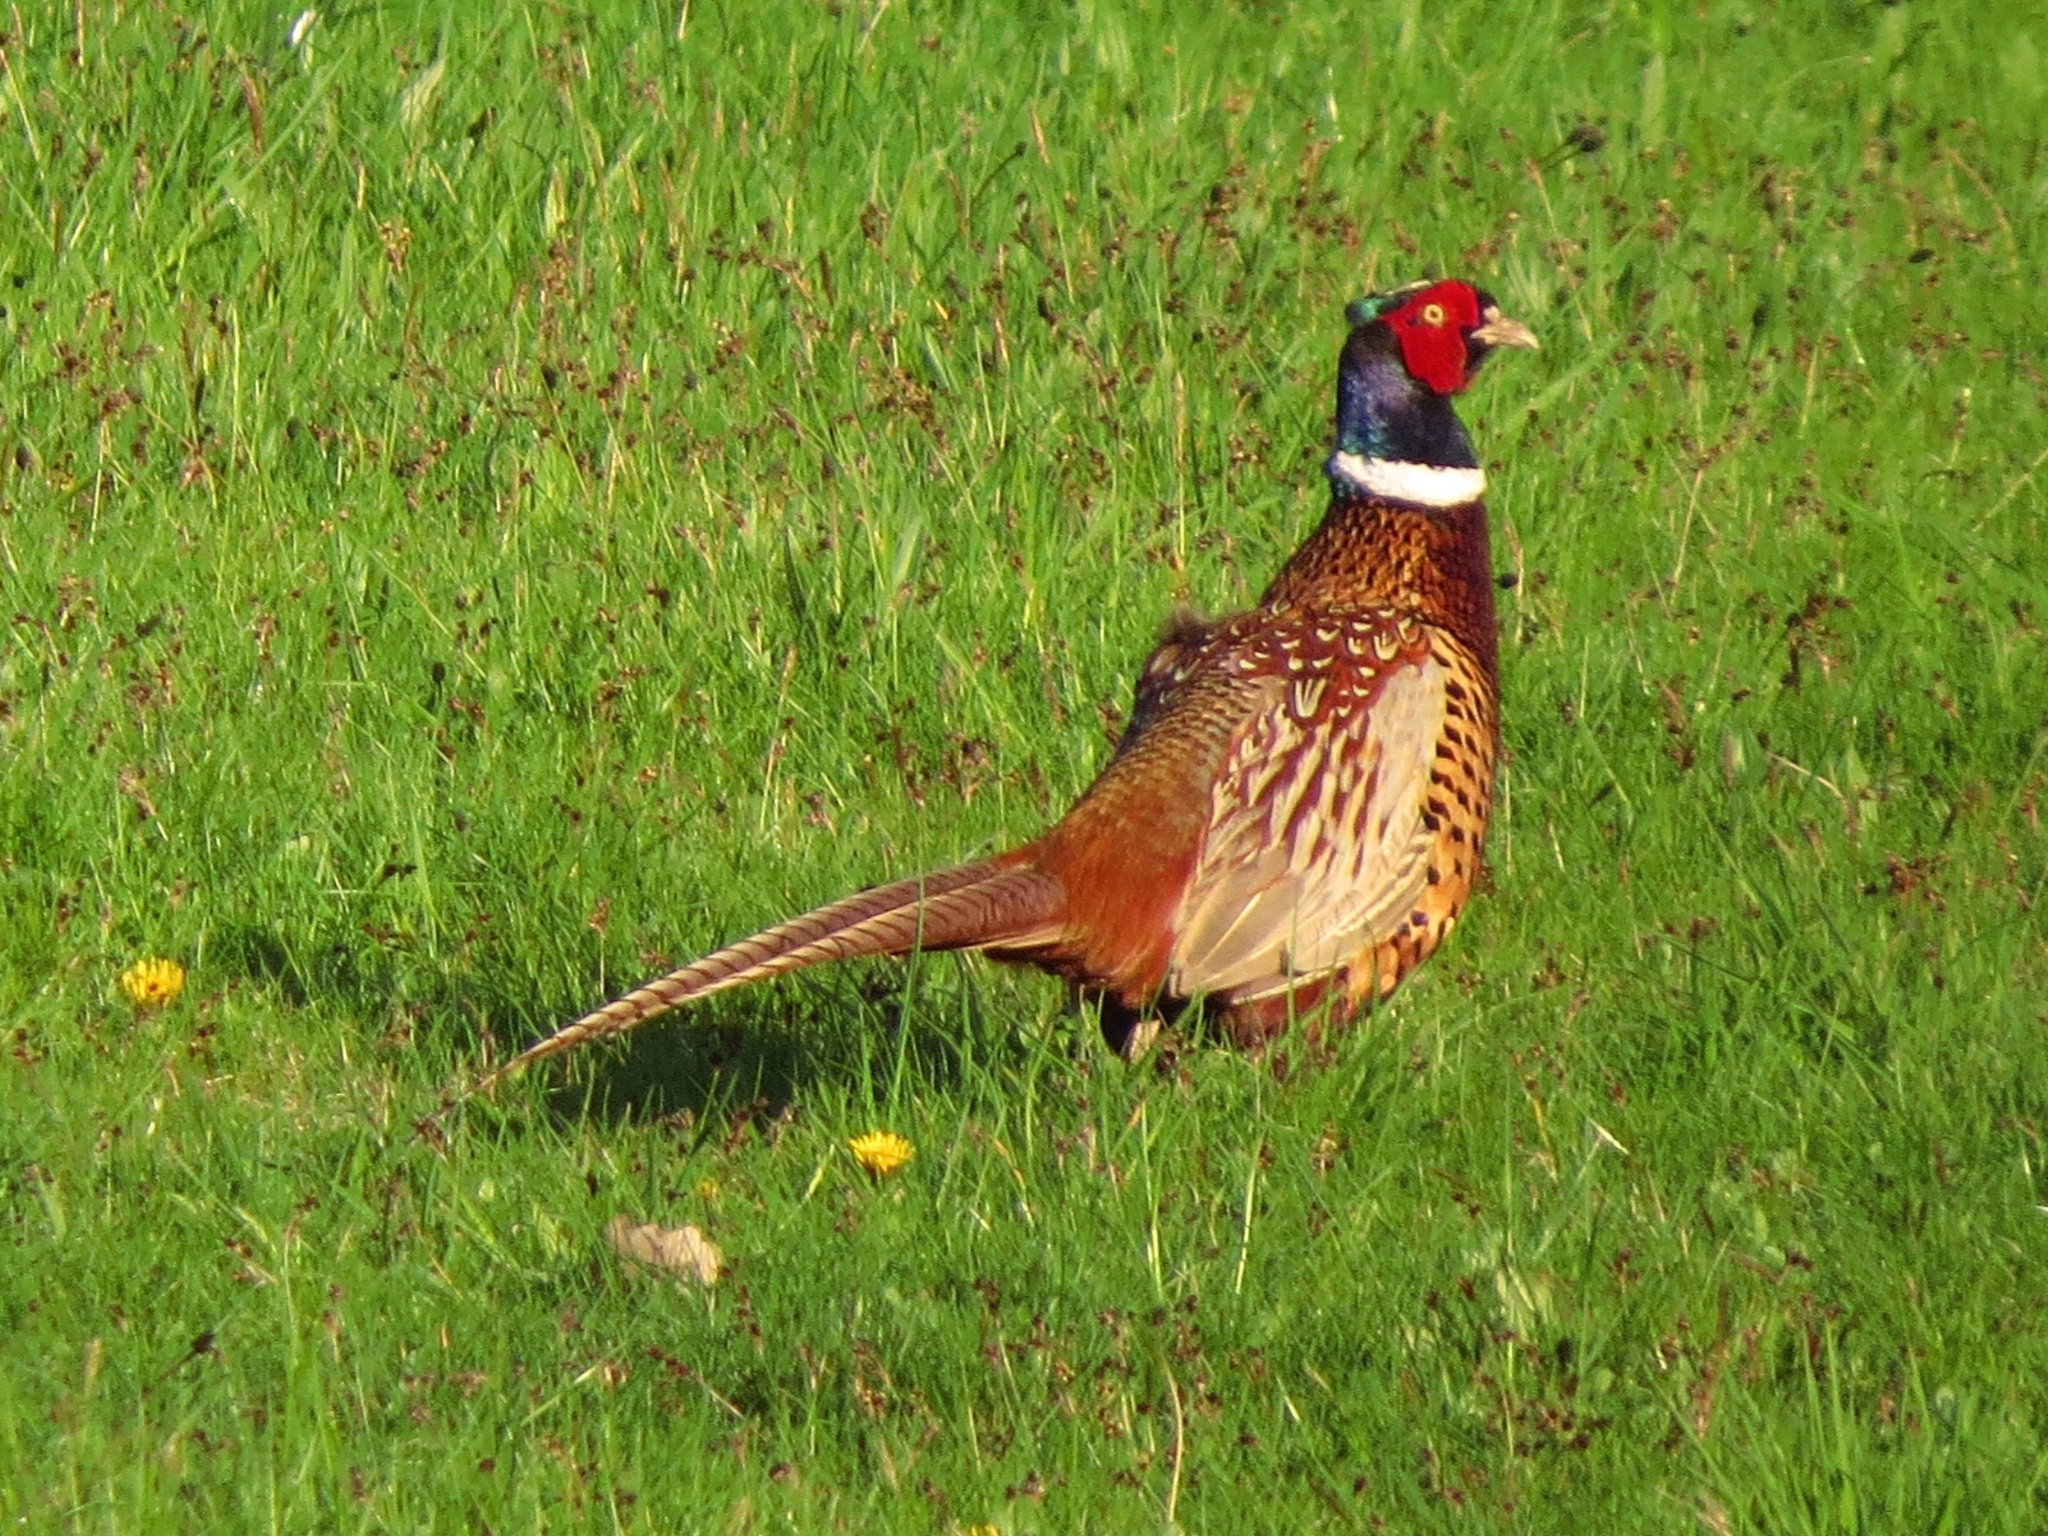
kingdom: Animalia
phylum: Chordata
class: Aves
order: Galliformes
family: Phasianidae
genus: Phasianus
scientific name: Phasianus colchicus
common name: Common pheasant
